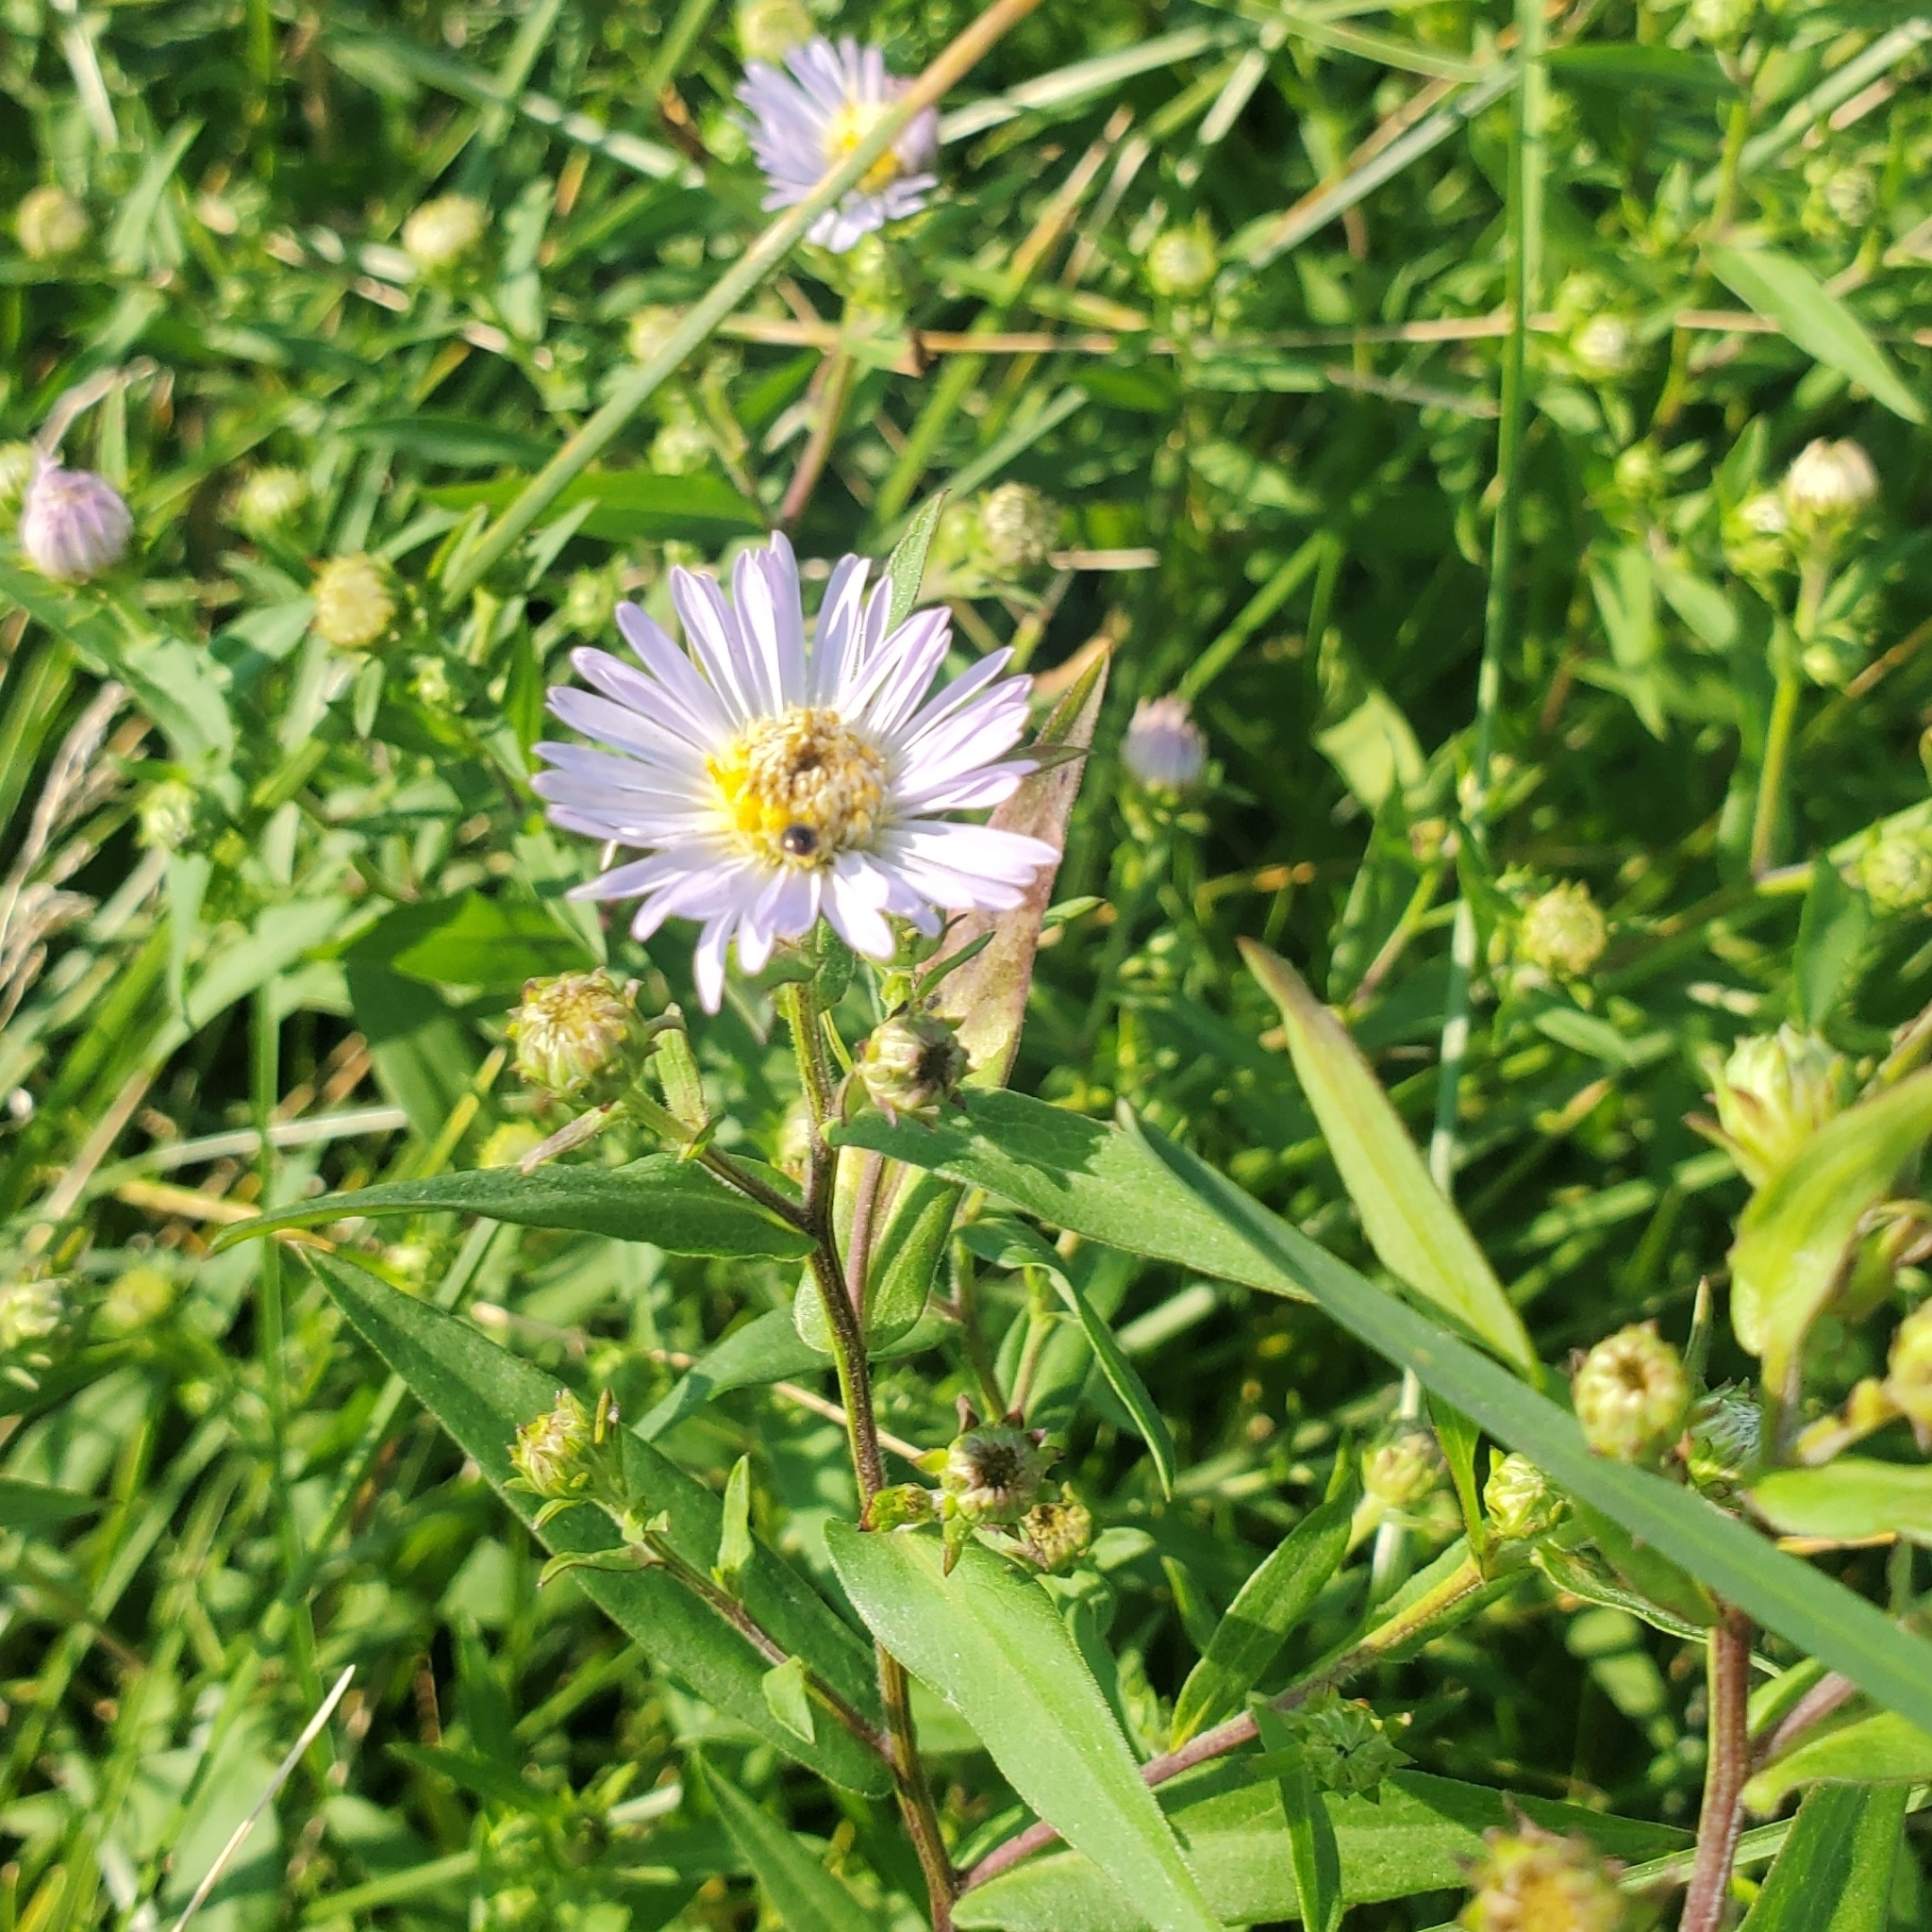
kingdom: Plantae
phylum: Tracheophyta
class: Magnoliopsida
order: Asterales
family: Asteraceae
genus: Symphyotrichum
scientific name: Symphyotrichum novi-belgii
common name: Michaelmas daisy
